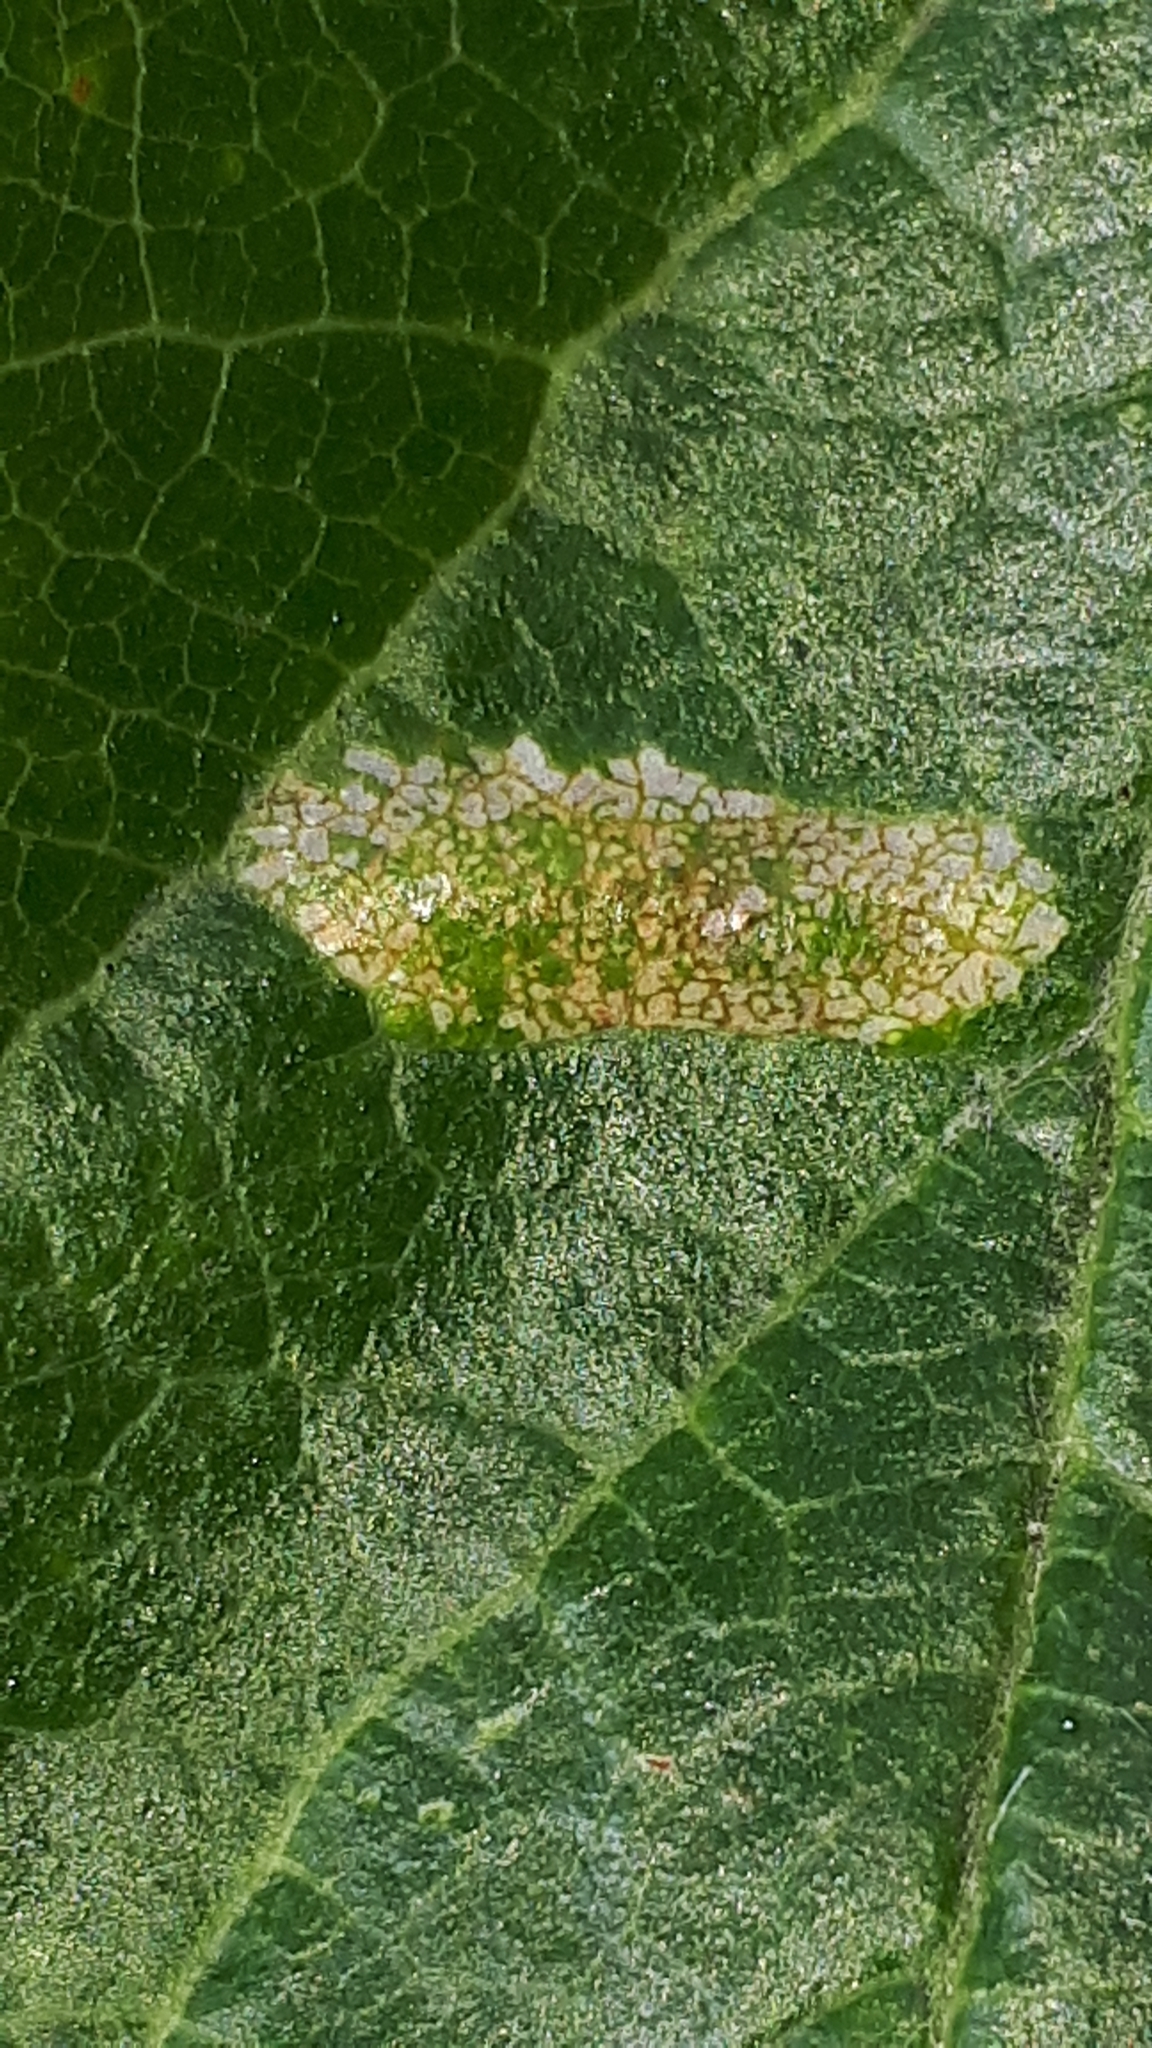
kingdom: Animalia
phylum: Arthropoda
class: Insecta
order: Lepidoptera
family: Gracillariidae
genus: Phyllonorycter
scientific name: Phyllonorycter cerasicolella
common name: Cherry midget
